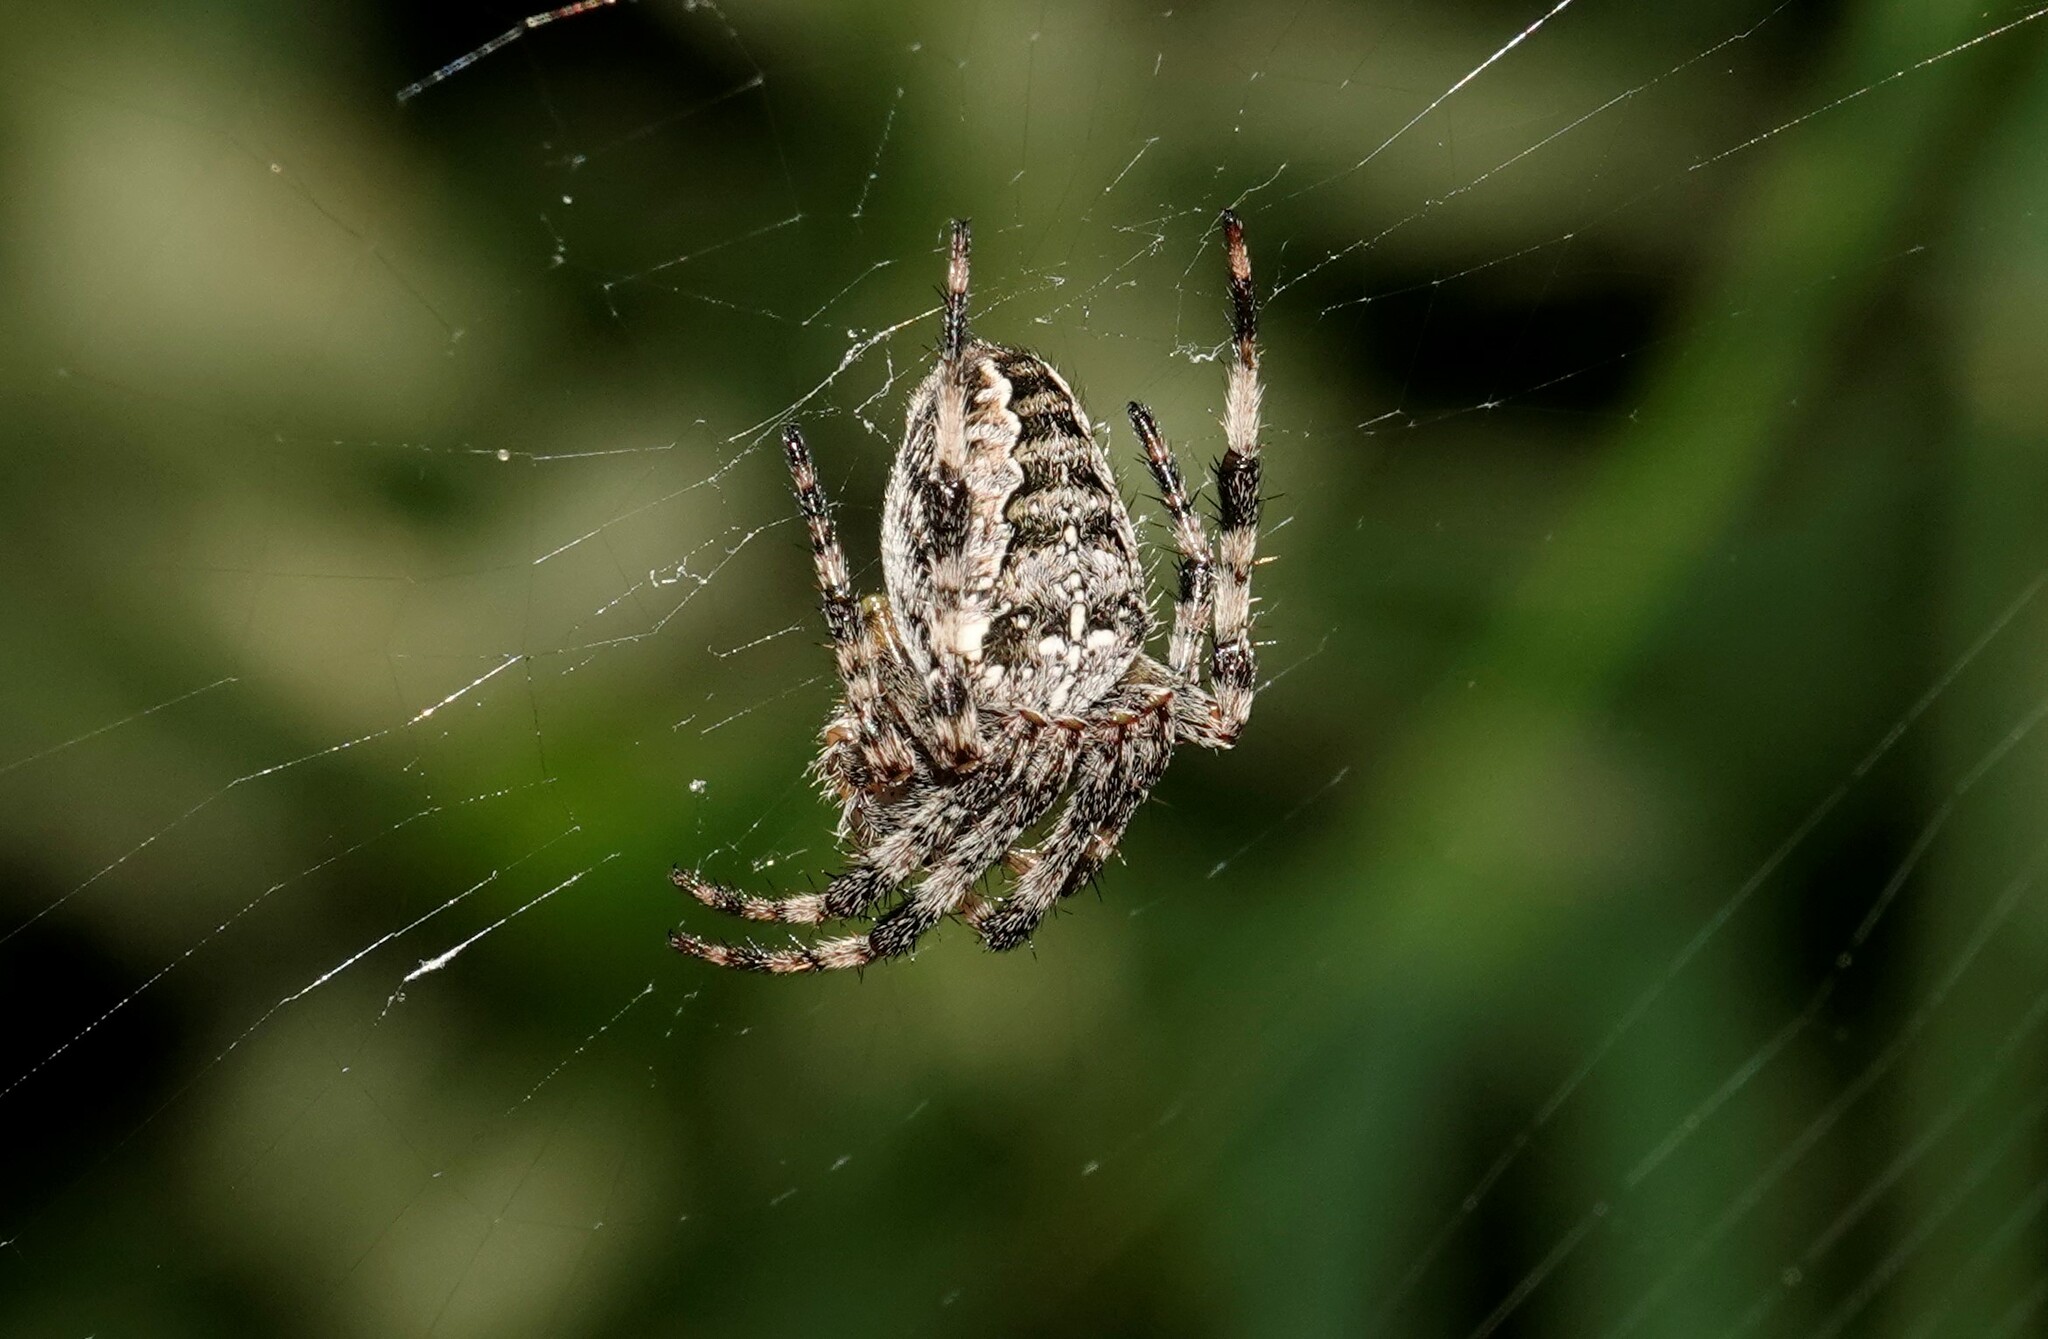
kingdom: Animalia
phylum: Arthropoda
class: Arachnida
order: Araneae
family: Araneidae
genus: Araneus
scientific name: Araneus diadematus
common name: Cross orbweaver
